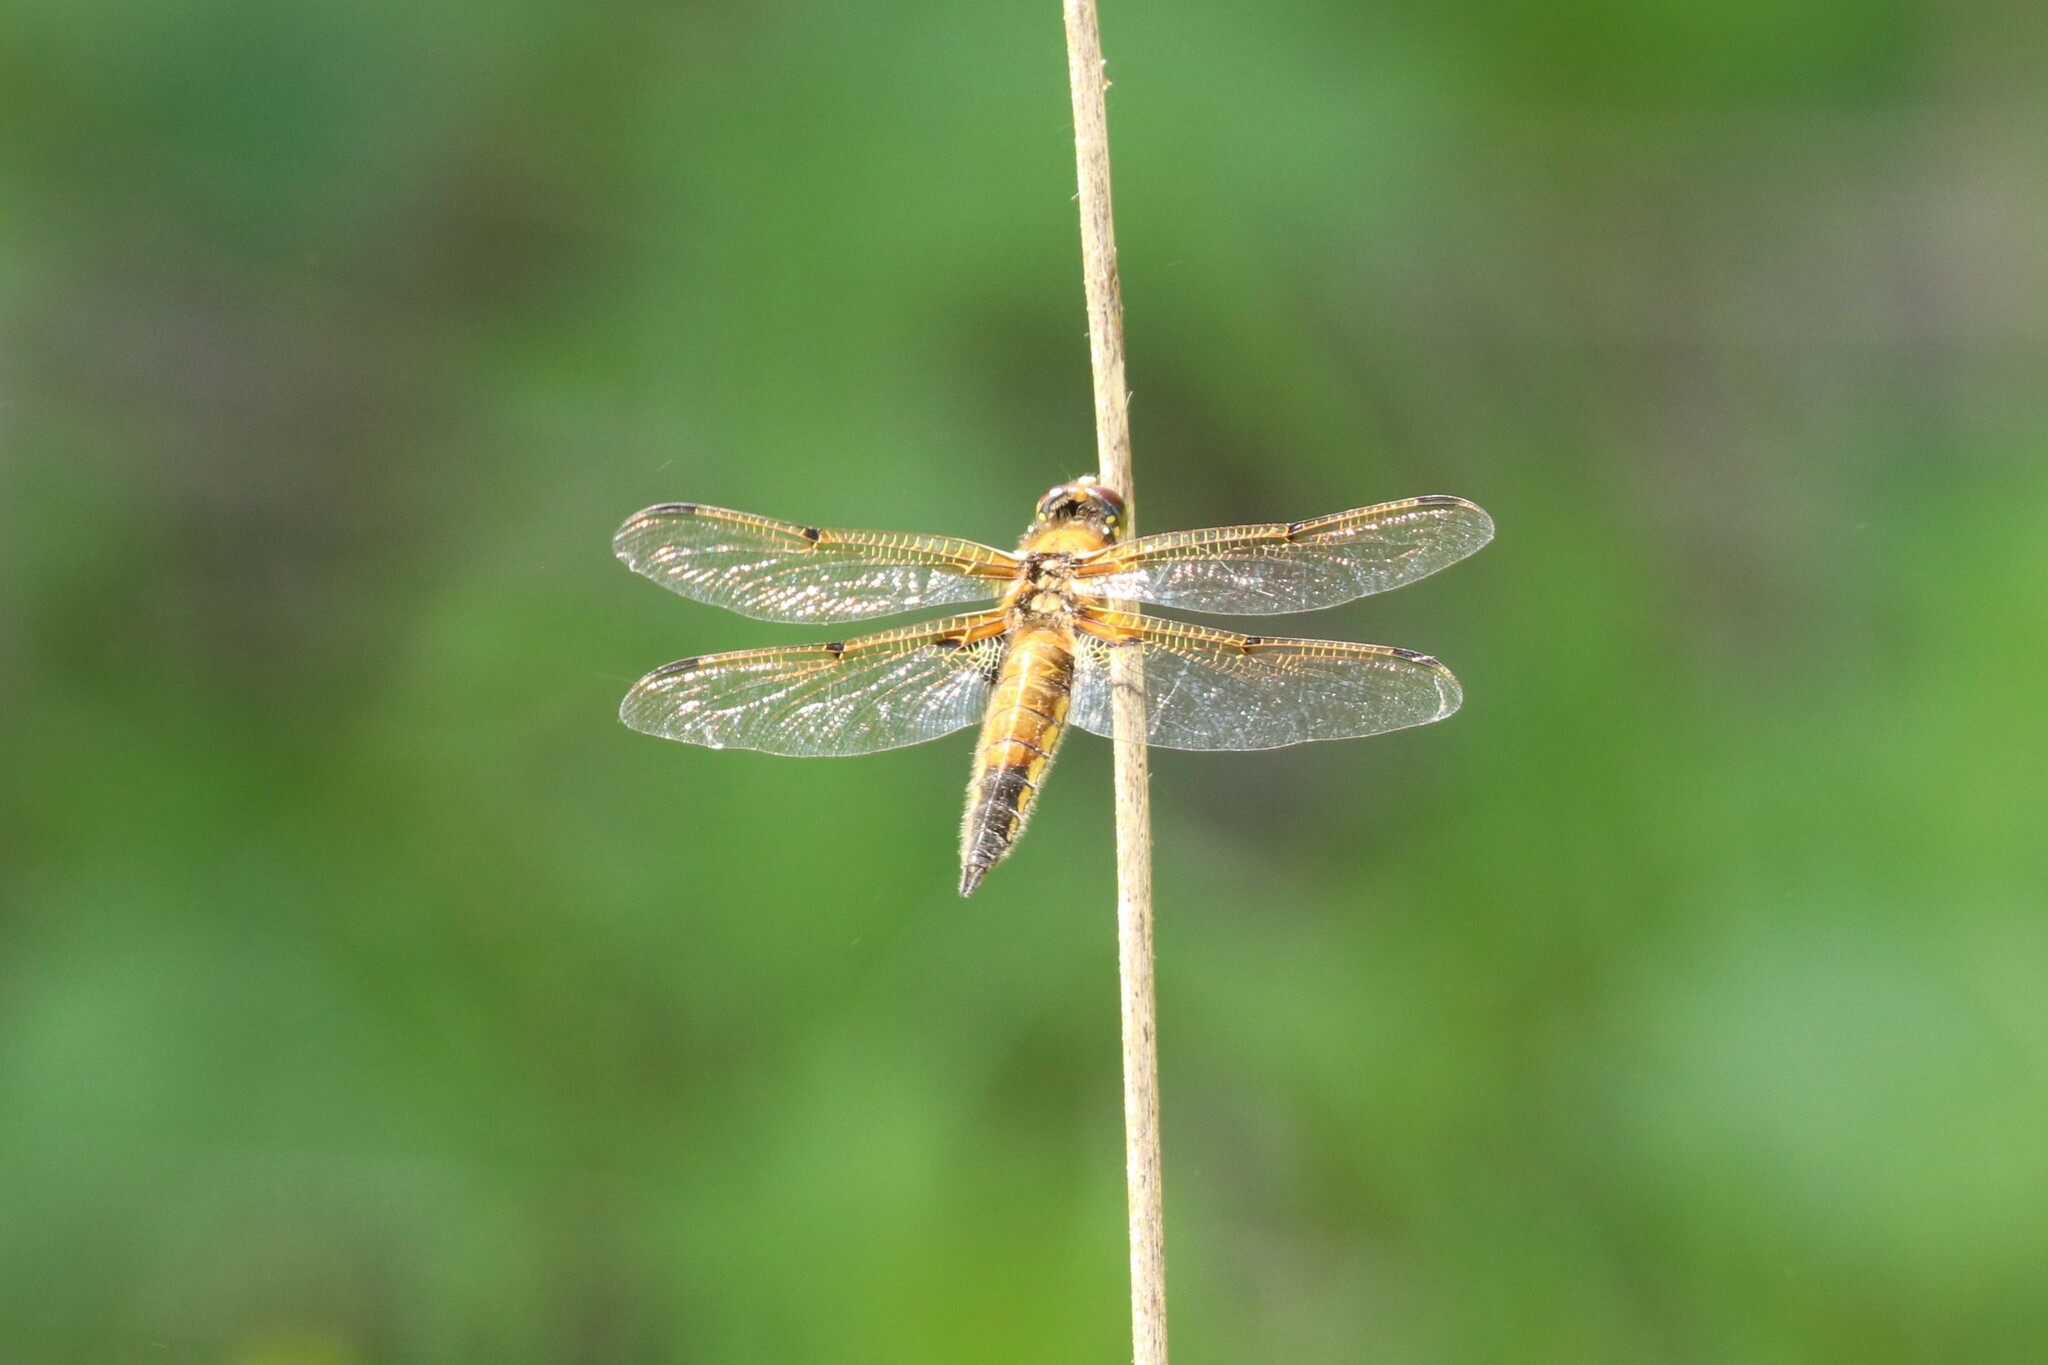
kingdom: Animalia
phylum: Arthropoda
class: Insecta
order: Odonata
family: Libellulidae
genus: Libellula
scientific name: Libellula quadrimaculata
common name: Four-spotted chaser
